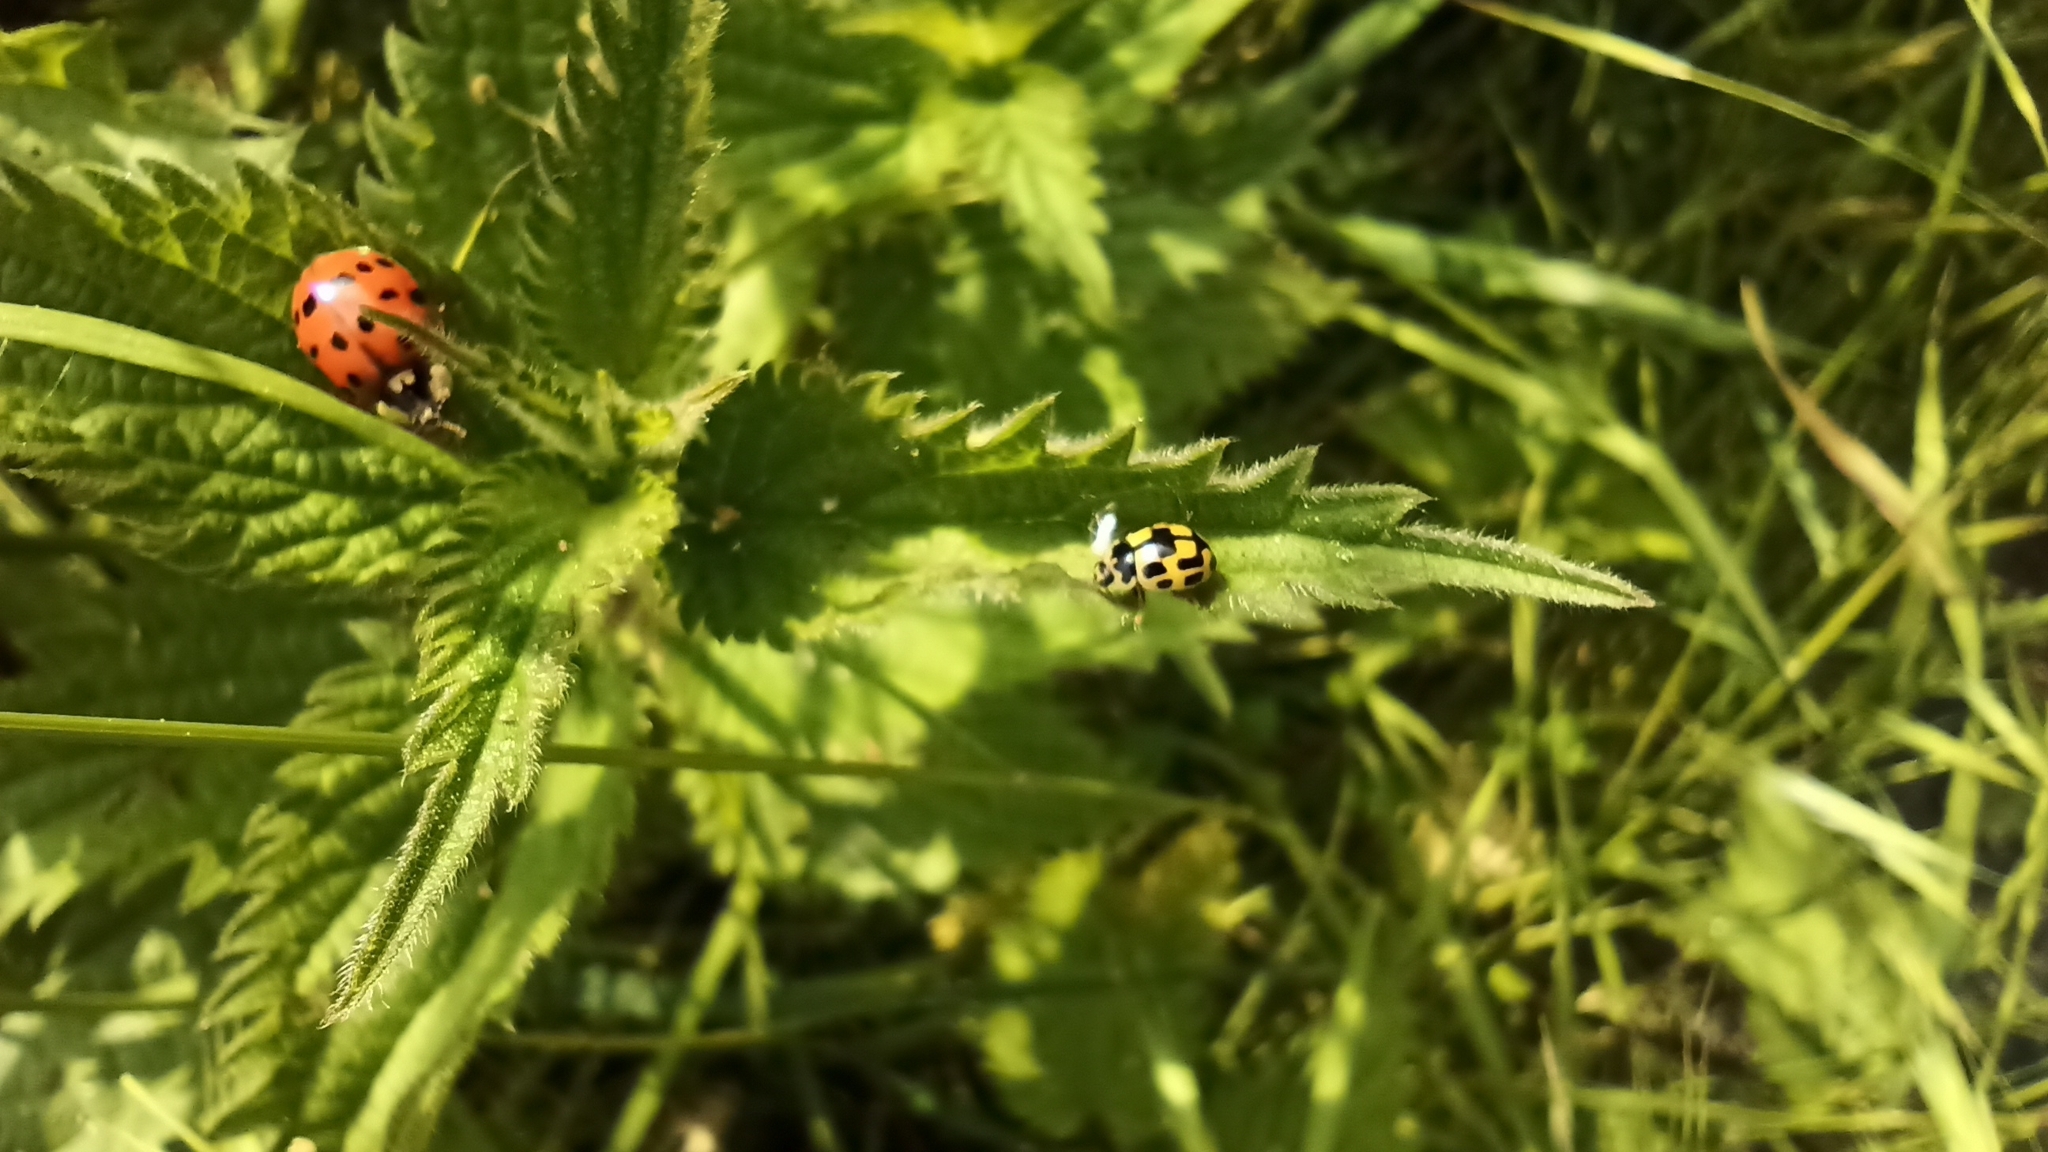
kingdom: Animalia
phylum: Arthropoda
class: Insecta
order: Coleoptera
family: Coccinellidae
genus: Harmonia
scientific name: Harmonia axyridis
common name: Harlequin ladybird
